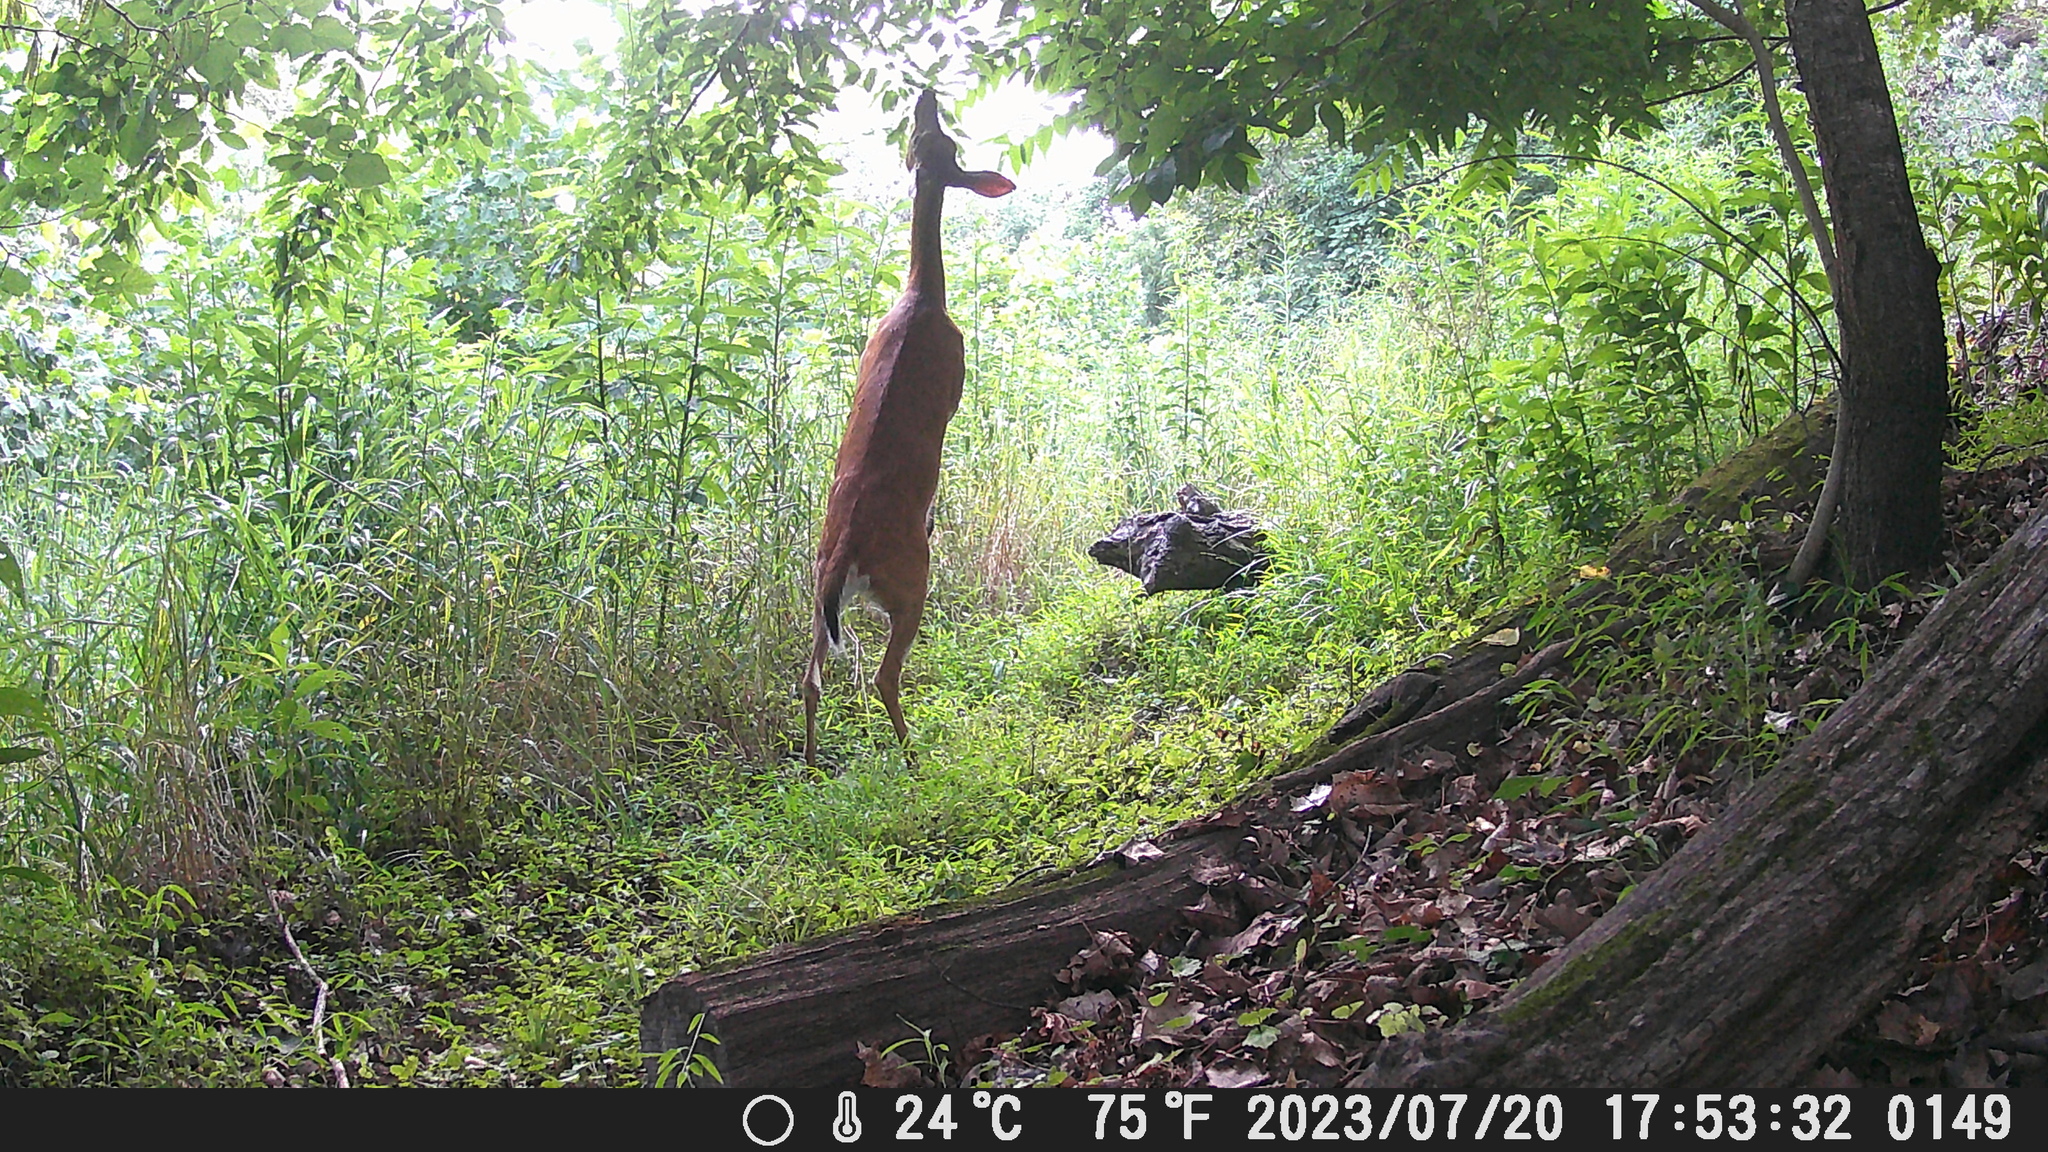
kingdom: Animalia
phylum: Chordata
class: Mammalia
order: Artiodactyla
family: Cervidae
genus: Odocoileus
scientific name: Odocoileus virginianus
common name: White-tailed deer
